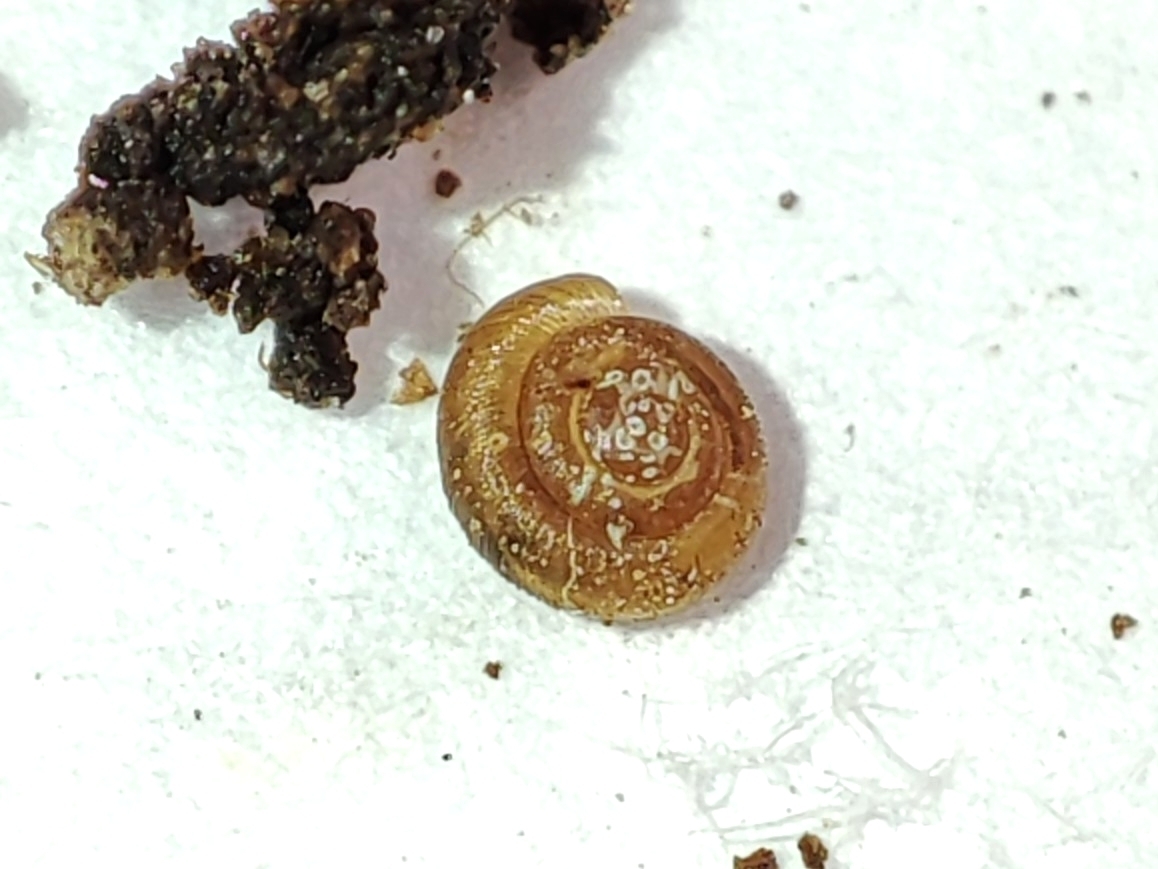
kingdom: Animalia
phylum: Mollusca
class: Gastropoda
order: Stylommatophora
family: Punctidae
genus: Punctum
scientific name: Punctum pygmaeum
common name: Dwarf snail
